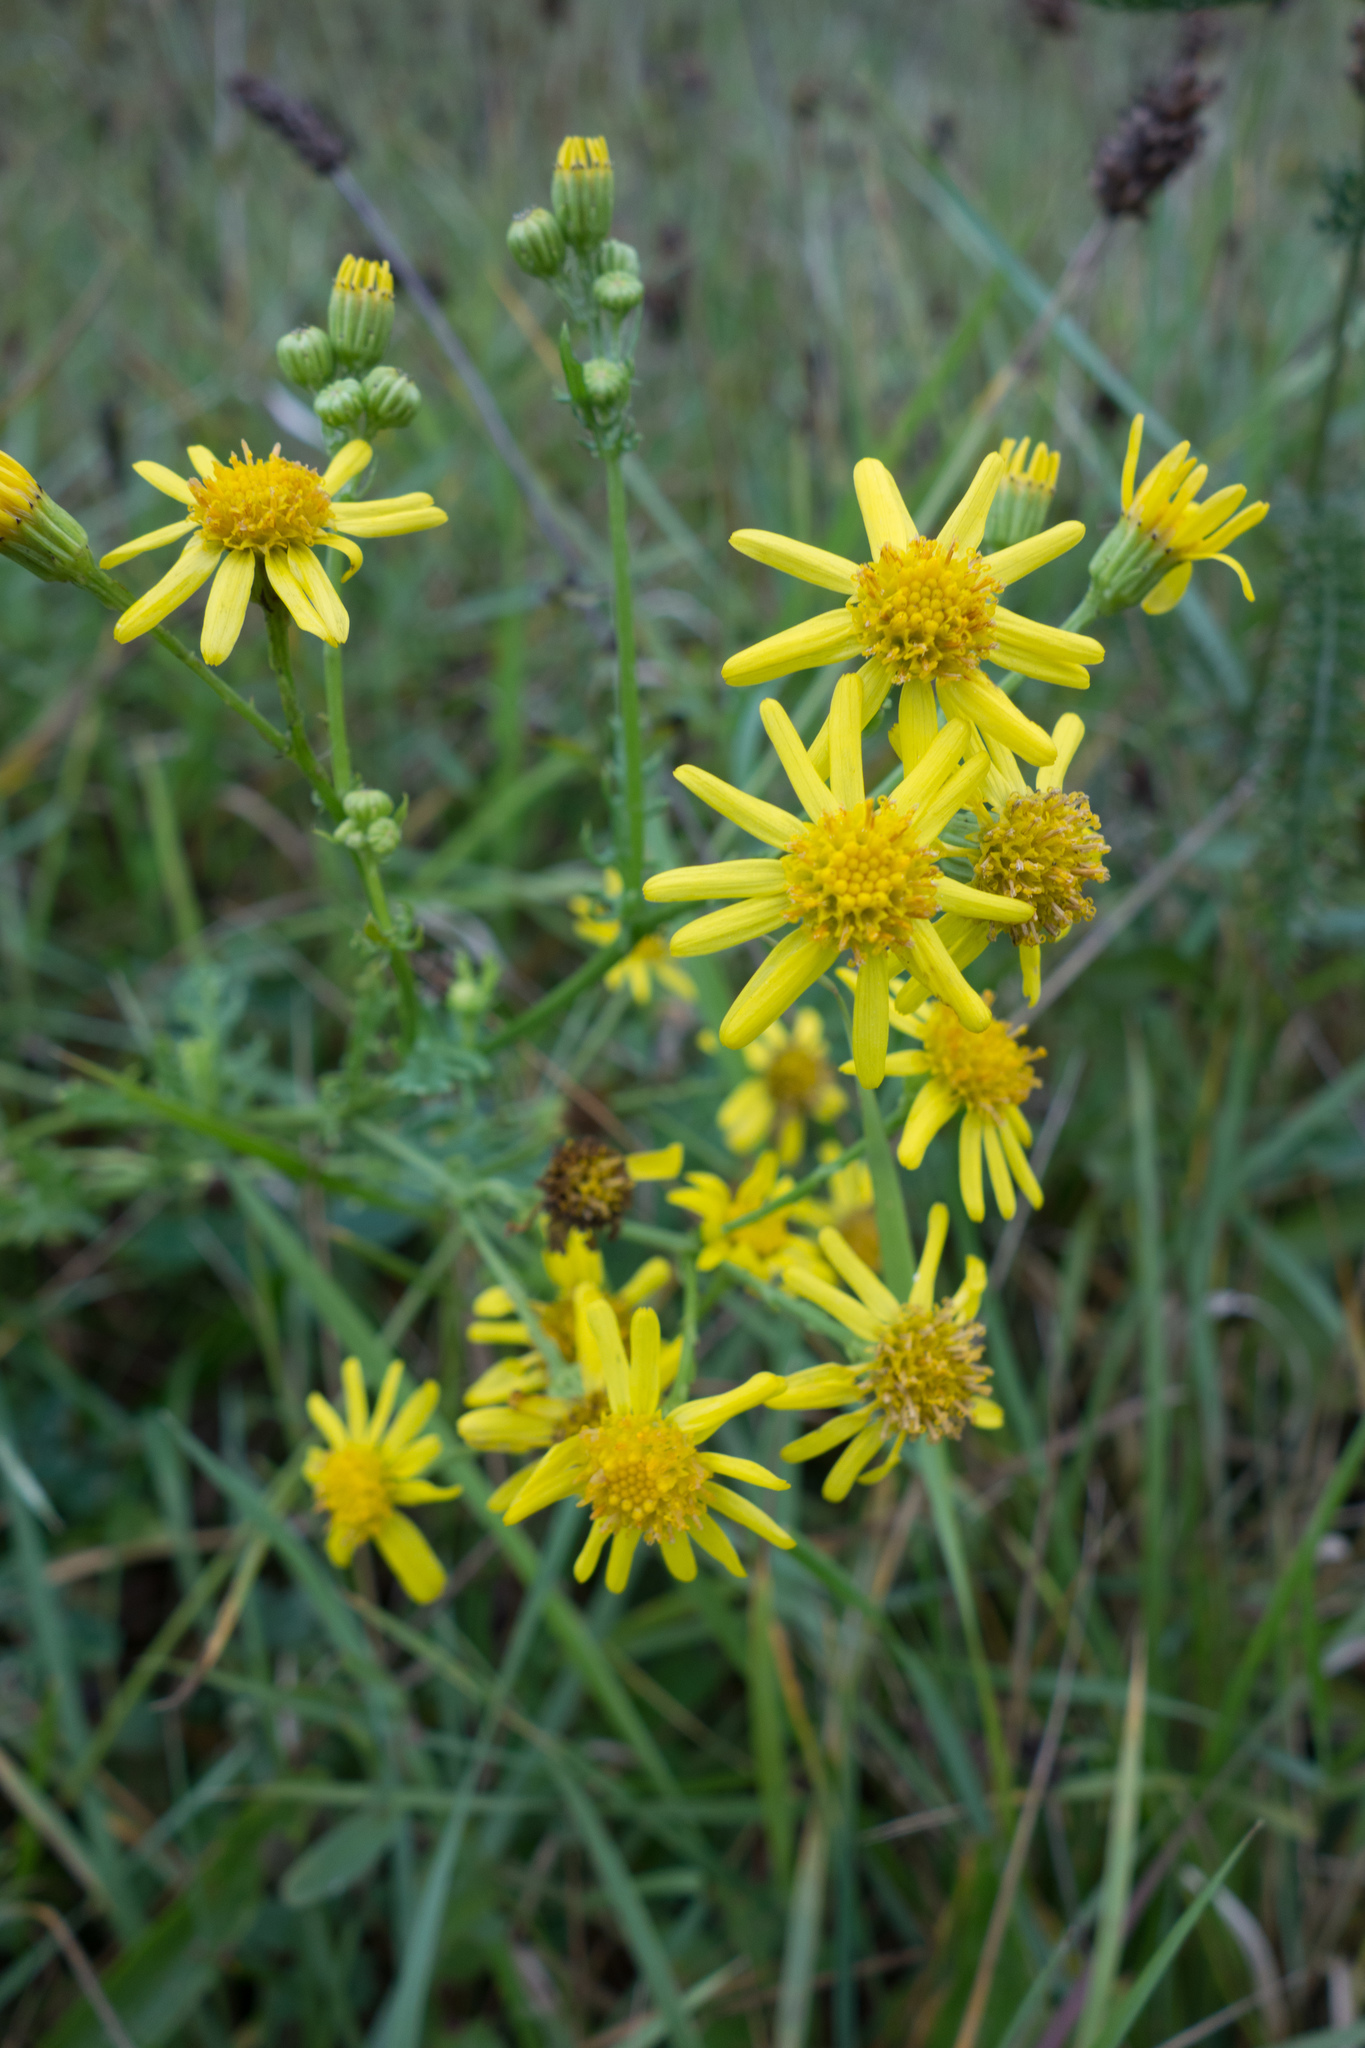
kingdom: Plantae
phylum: Tracheophyta
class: Magnoliopsida
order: Asterales
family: Asteraceae
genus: Jacobaea
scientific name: Jacobaea vulgaris
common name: Stinking willie
